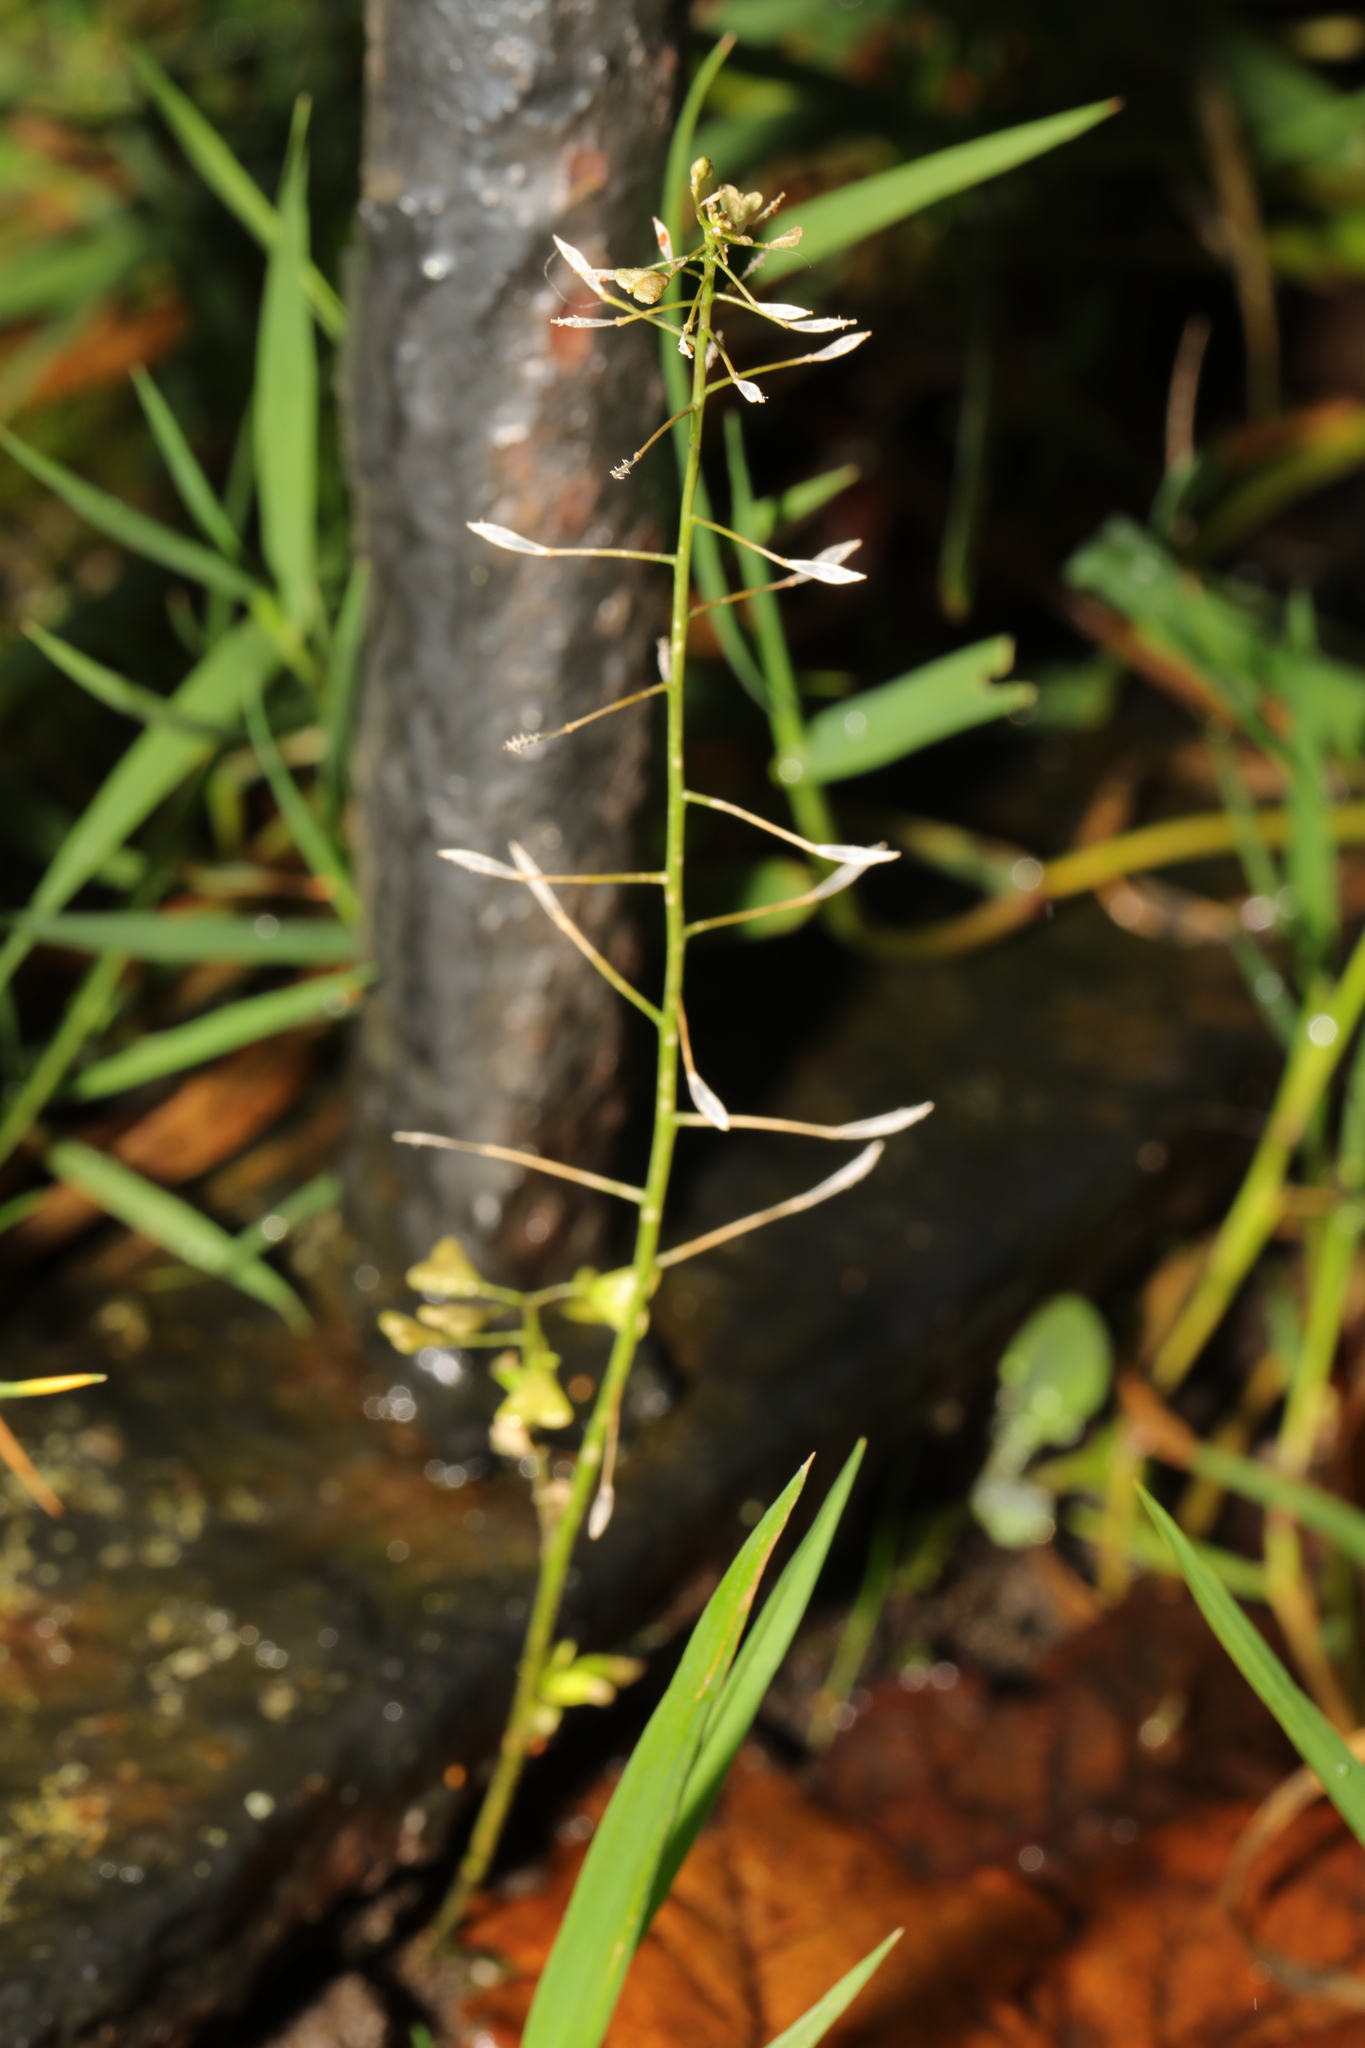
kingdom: Plantae
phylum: Tracheophyta
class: Magnoliopsida
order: Brassicales
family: Brassicaceae
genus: Capsella
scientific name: Capsella bursa-pastoris
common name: Shepherd's purse
